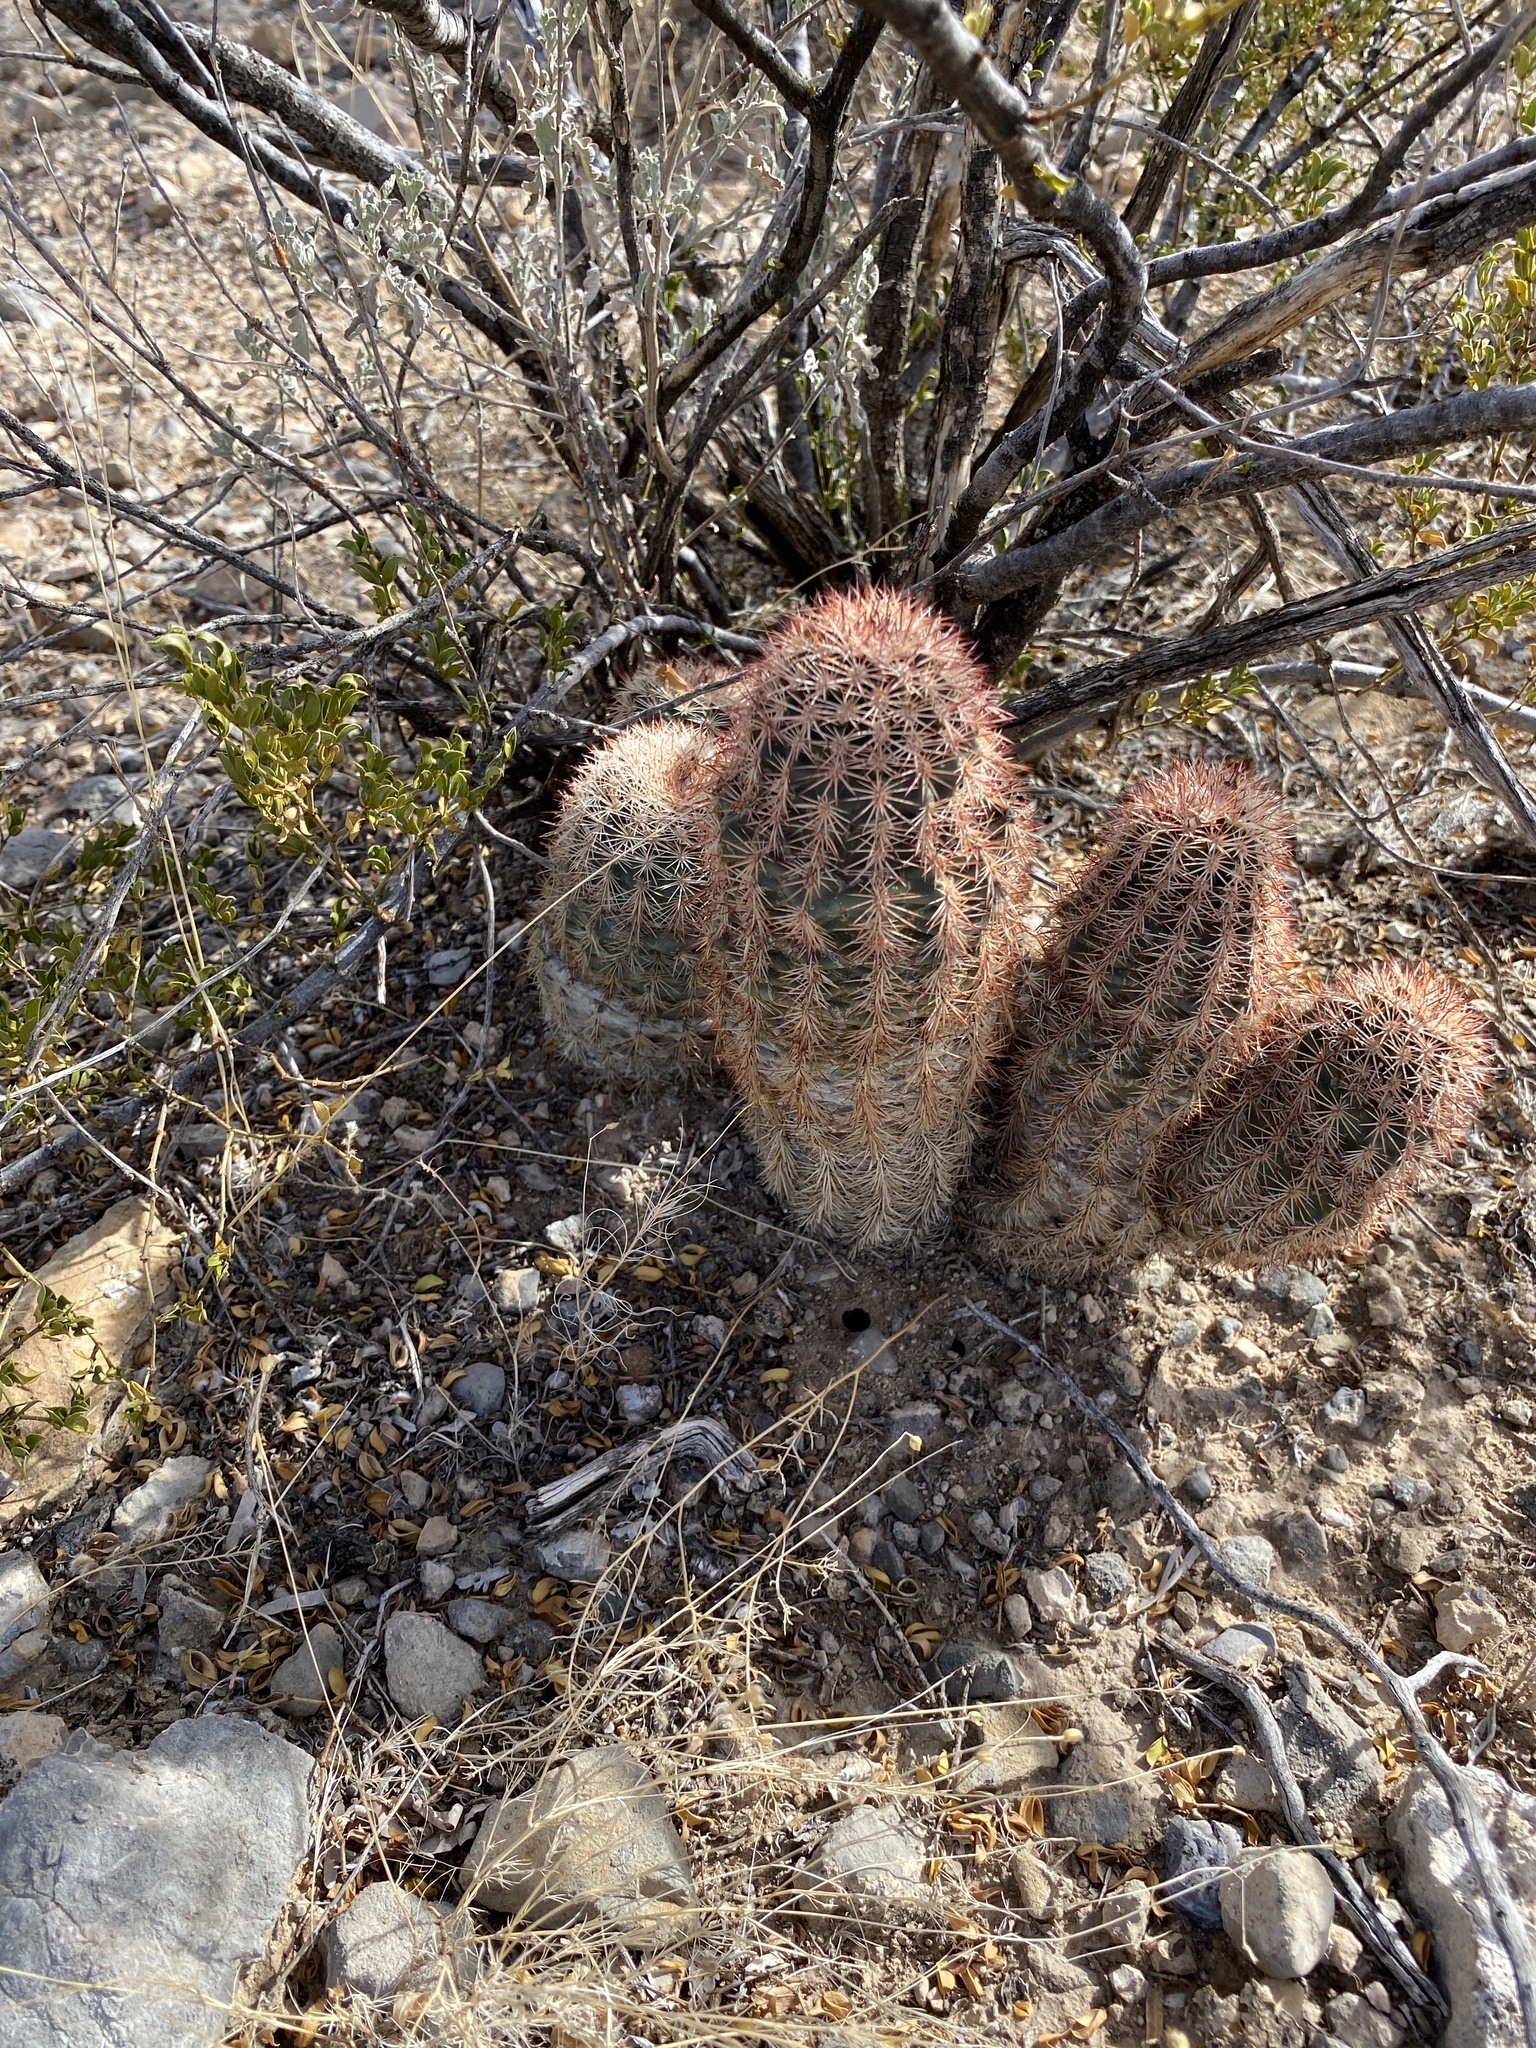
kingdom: Plantae
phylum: Tracheophyta
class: Magnoliopsida
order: Caryophyllales
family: Cactaceae
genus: Echinocereus
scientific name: Echinocereus dasyacanthus
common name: Spiny hedgehog cactus
